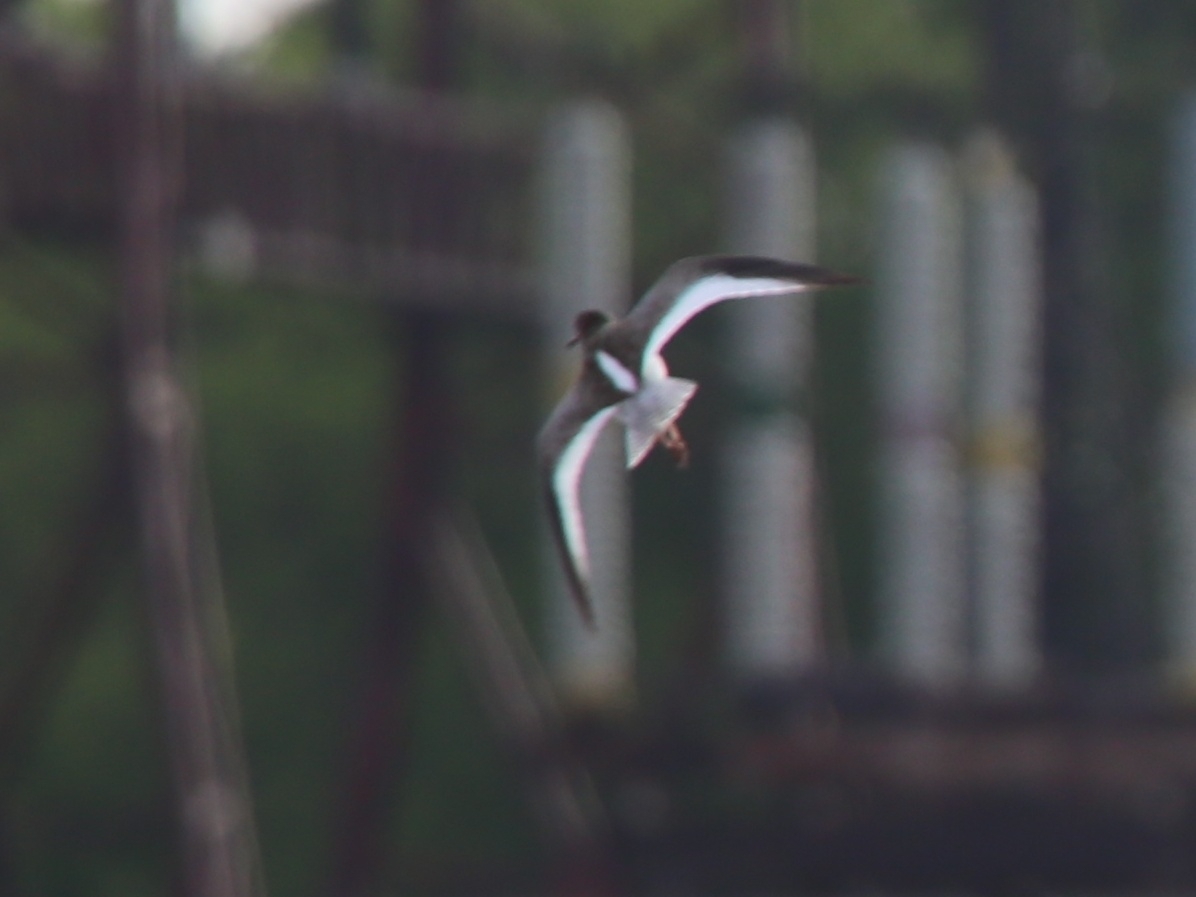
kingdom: Animalia
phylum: Chordata
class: Aves
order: Charadriiformes
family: Scolopacidae
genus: Tringa
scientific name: Tringa totanus
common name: Common redshank
